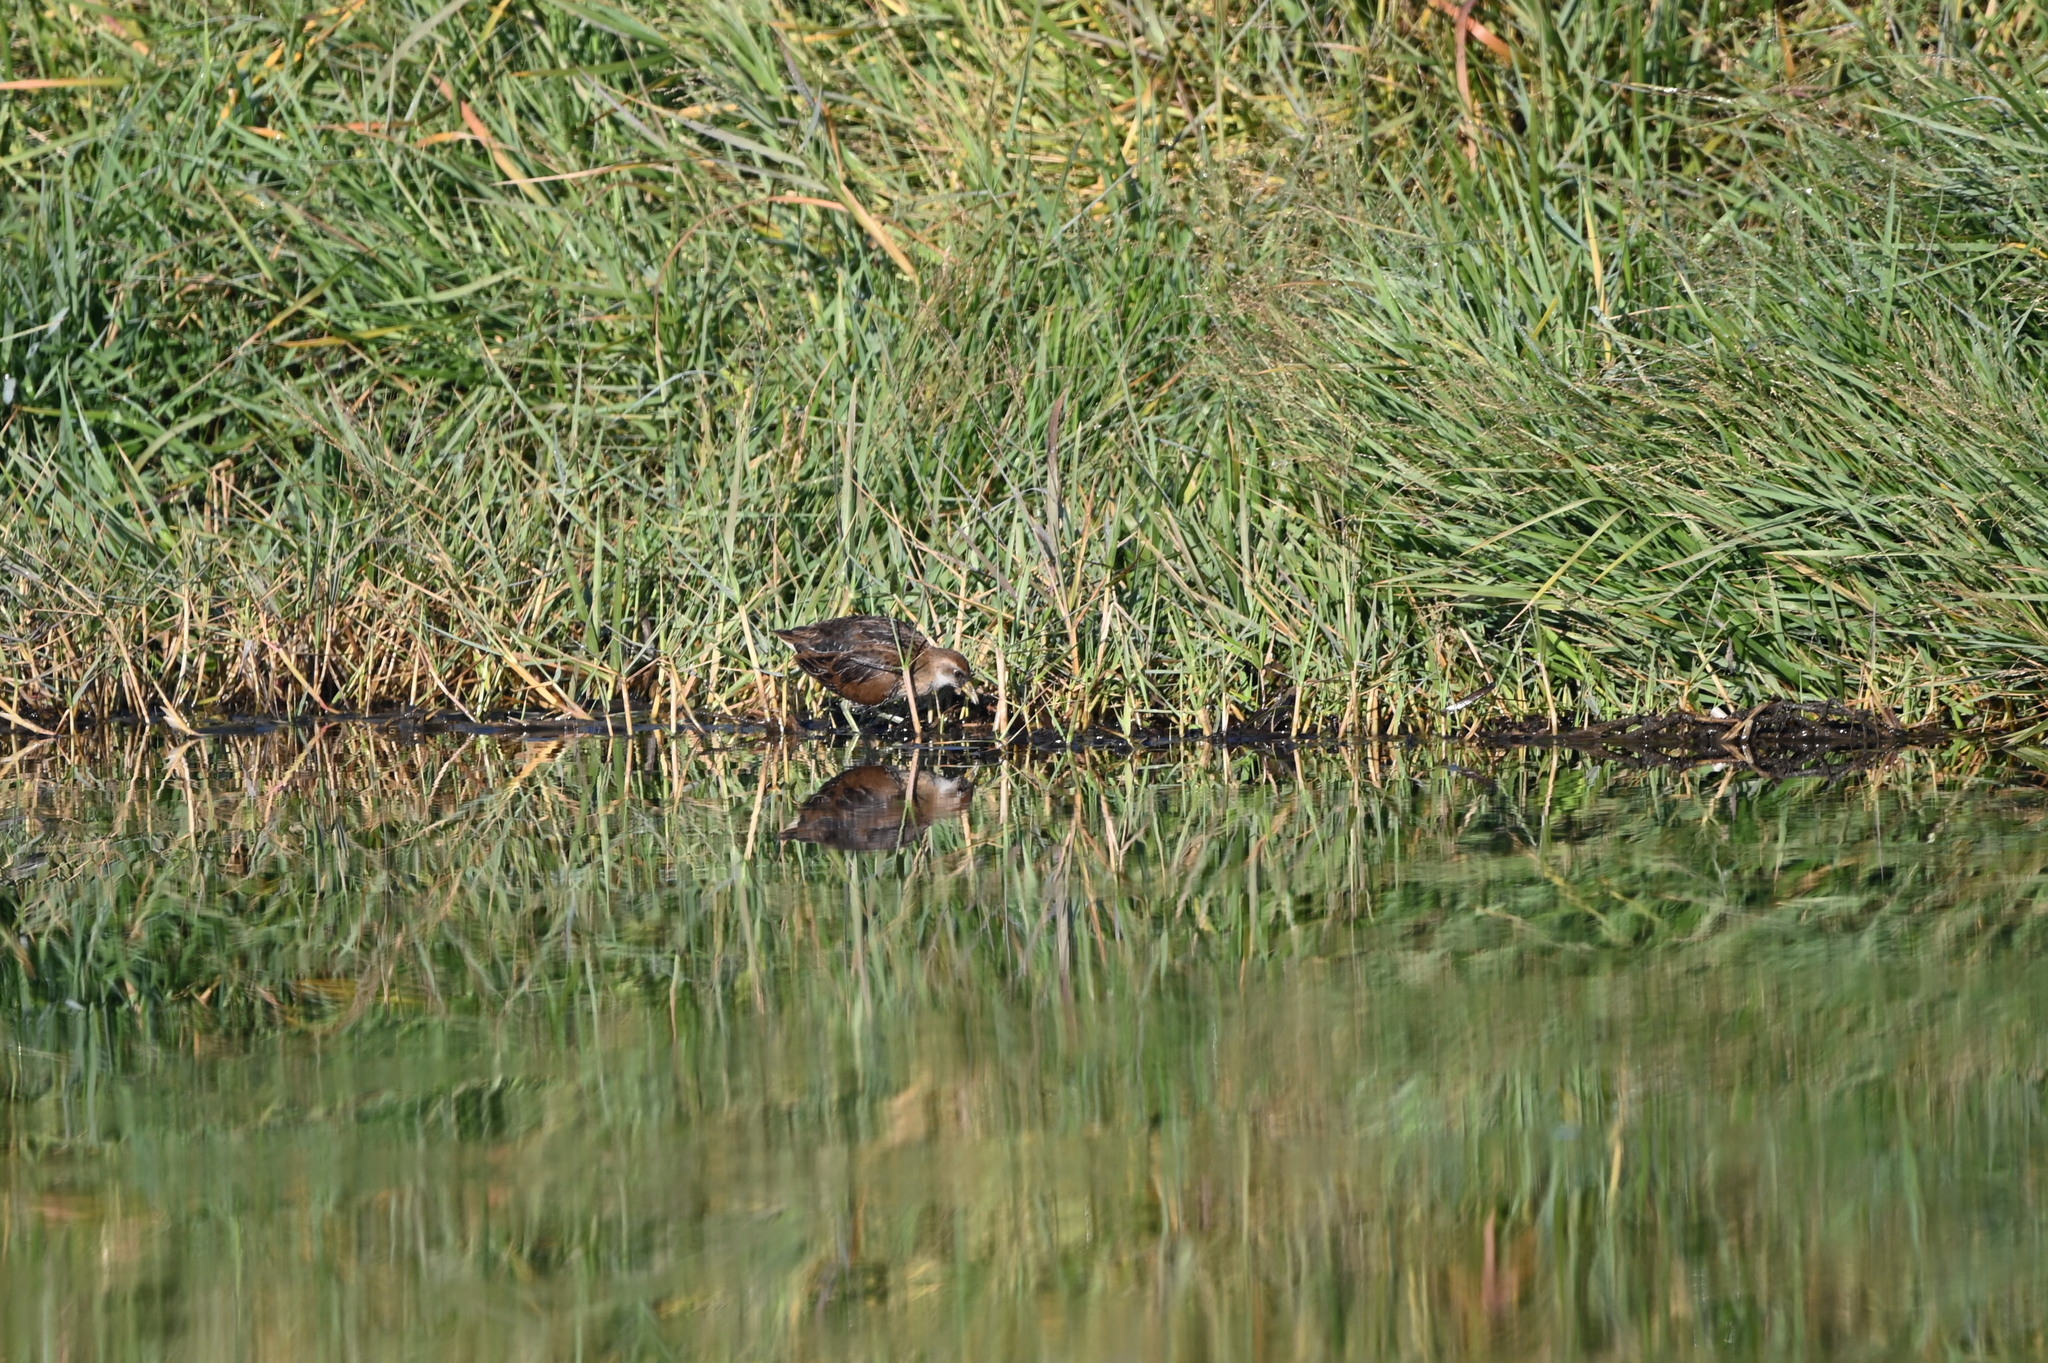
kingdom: Animalia
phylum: Chordata
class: Aves
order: Gruiformes
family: Rallidae
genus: Porzana
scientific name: Porzana carolina
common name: Sora
